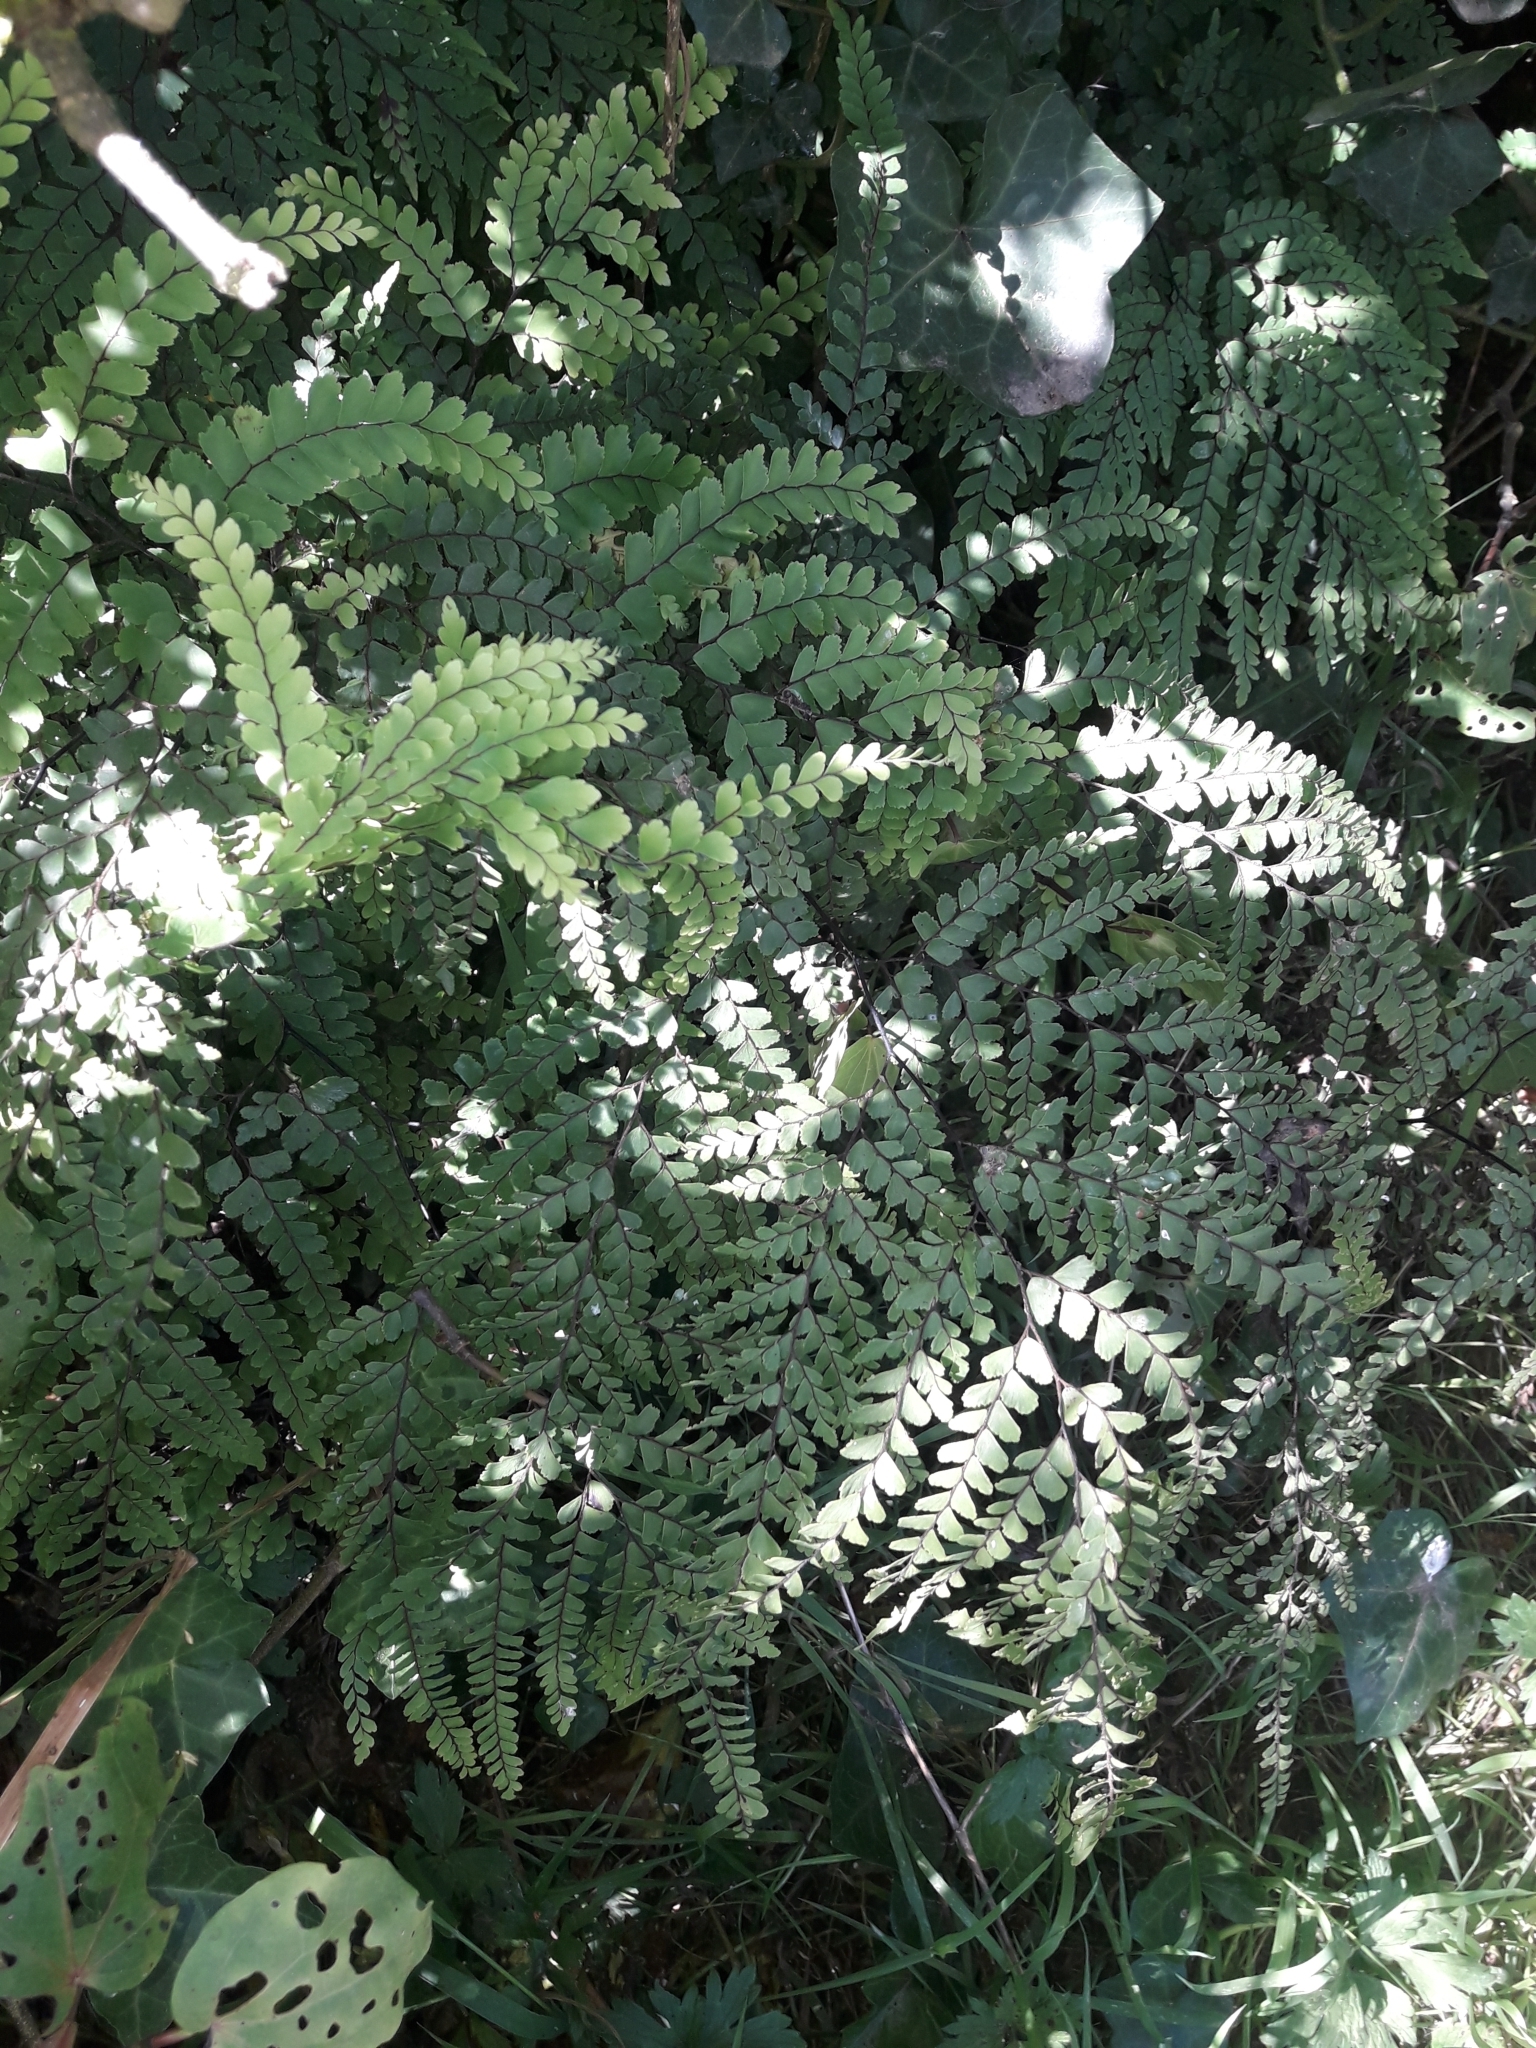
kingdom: Plantae
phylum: Tracheophyta
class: Polypodiopsida
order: Polypodiales
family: Pteridaceae
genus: Adiantum
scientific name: Adiantum formosum
